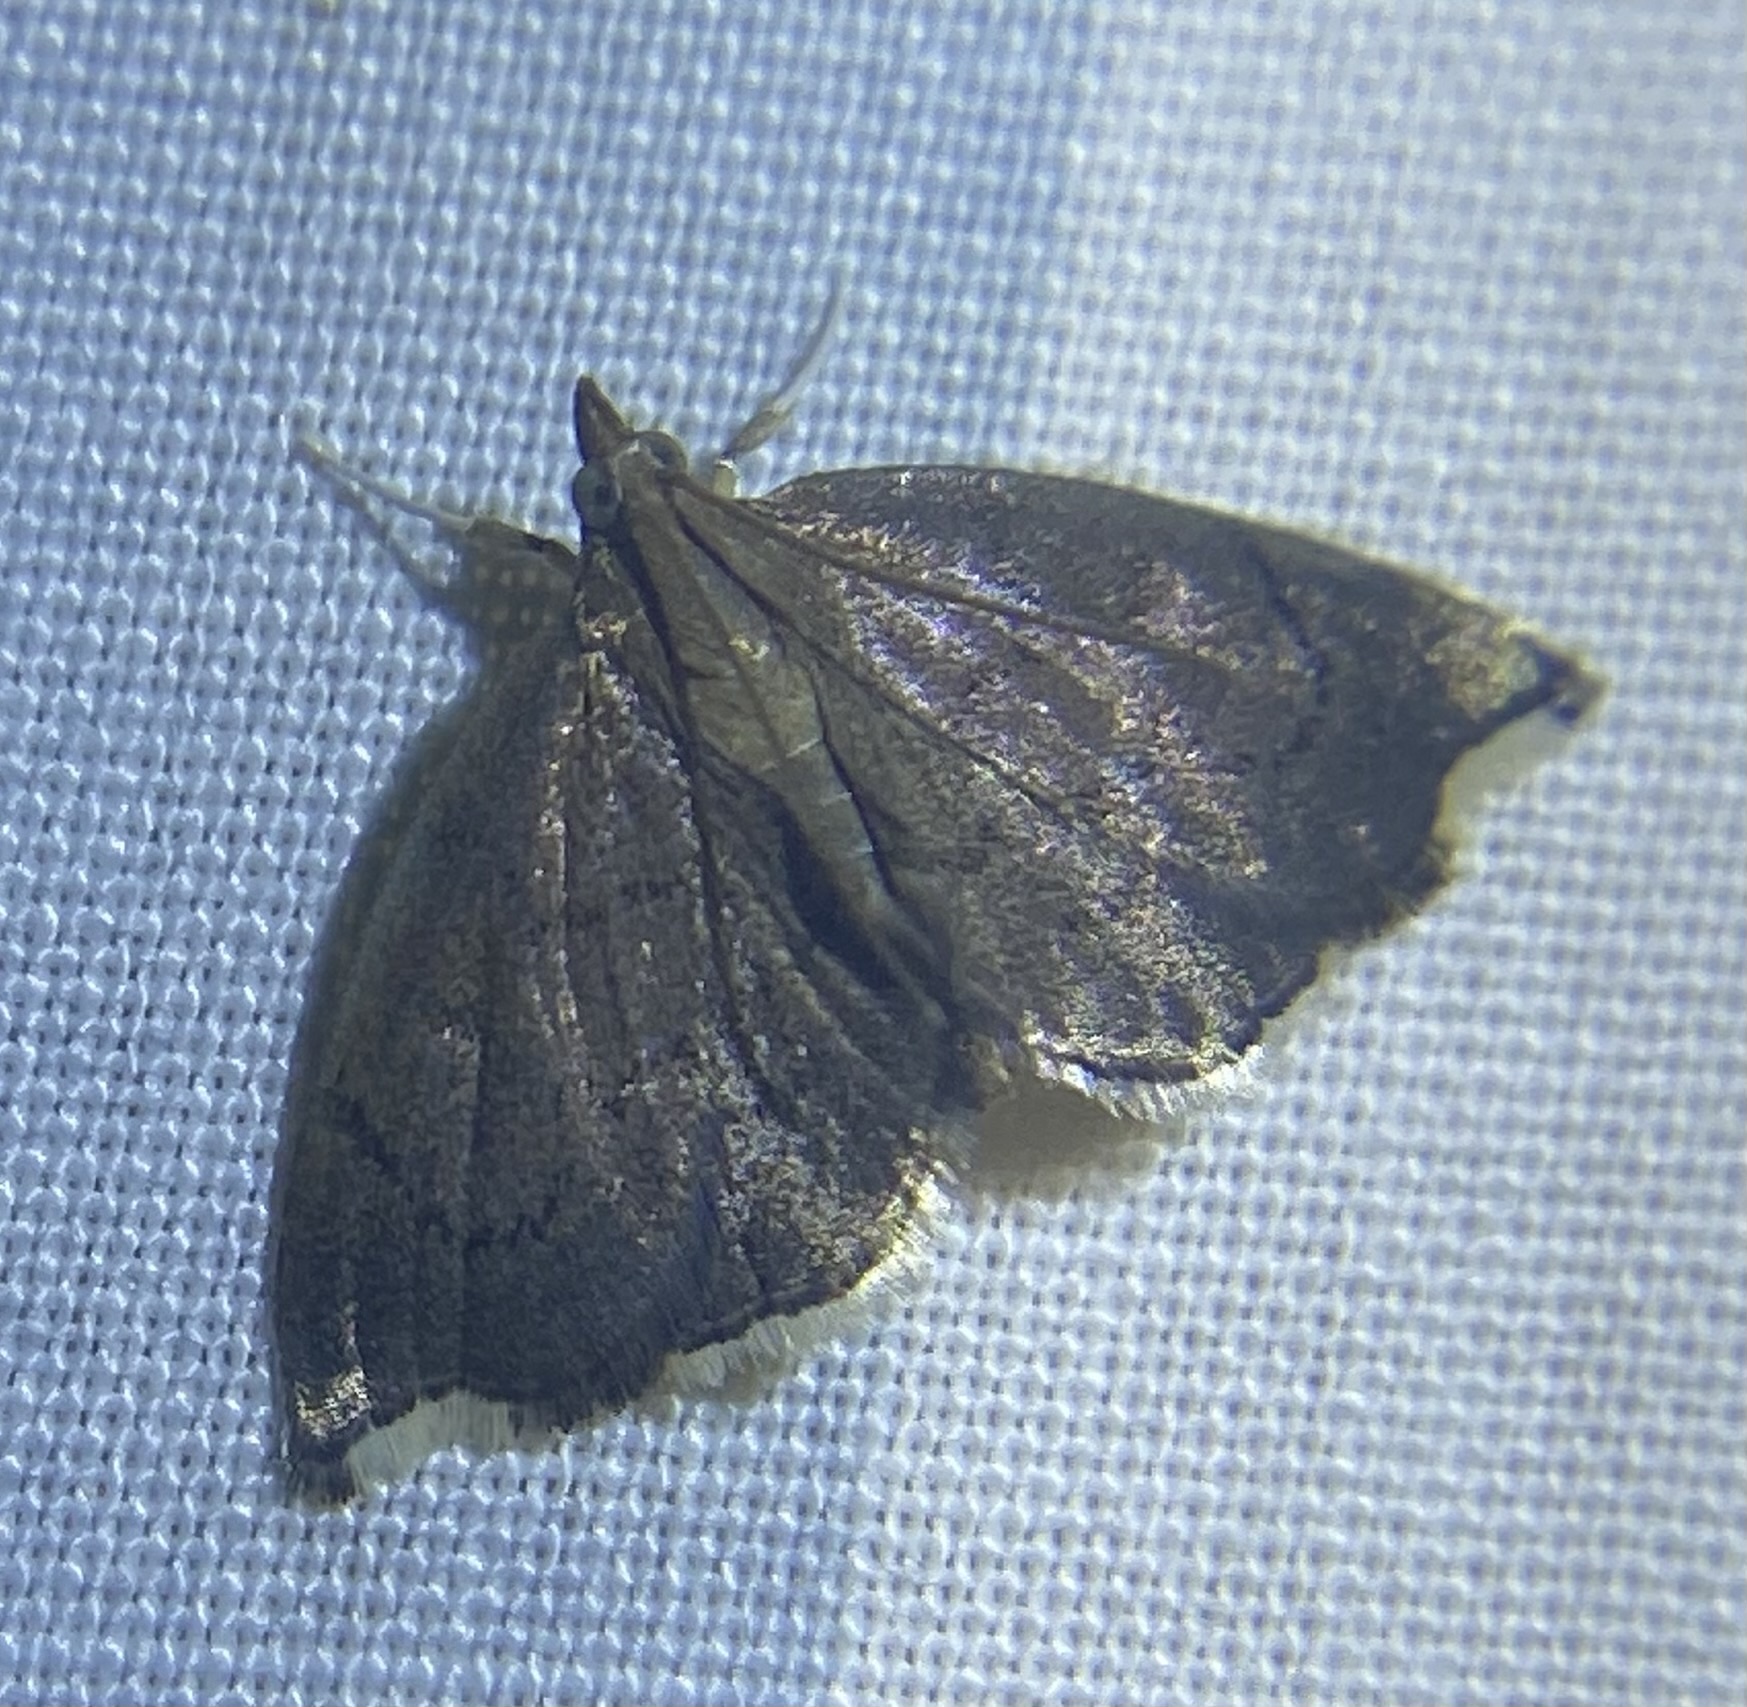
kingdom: Animalia
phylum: Arthropoda
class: Insecta
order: Lepidoptera
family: Crambidae
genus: Perispasta
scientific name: Perispasta caeculalis
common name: Titian peale's moth
